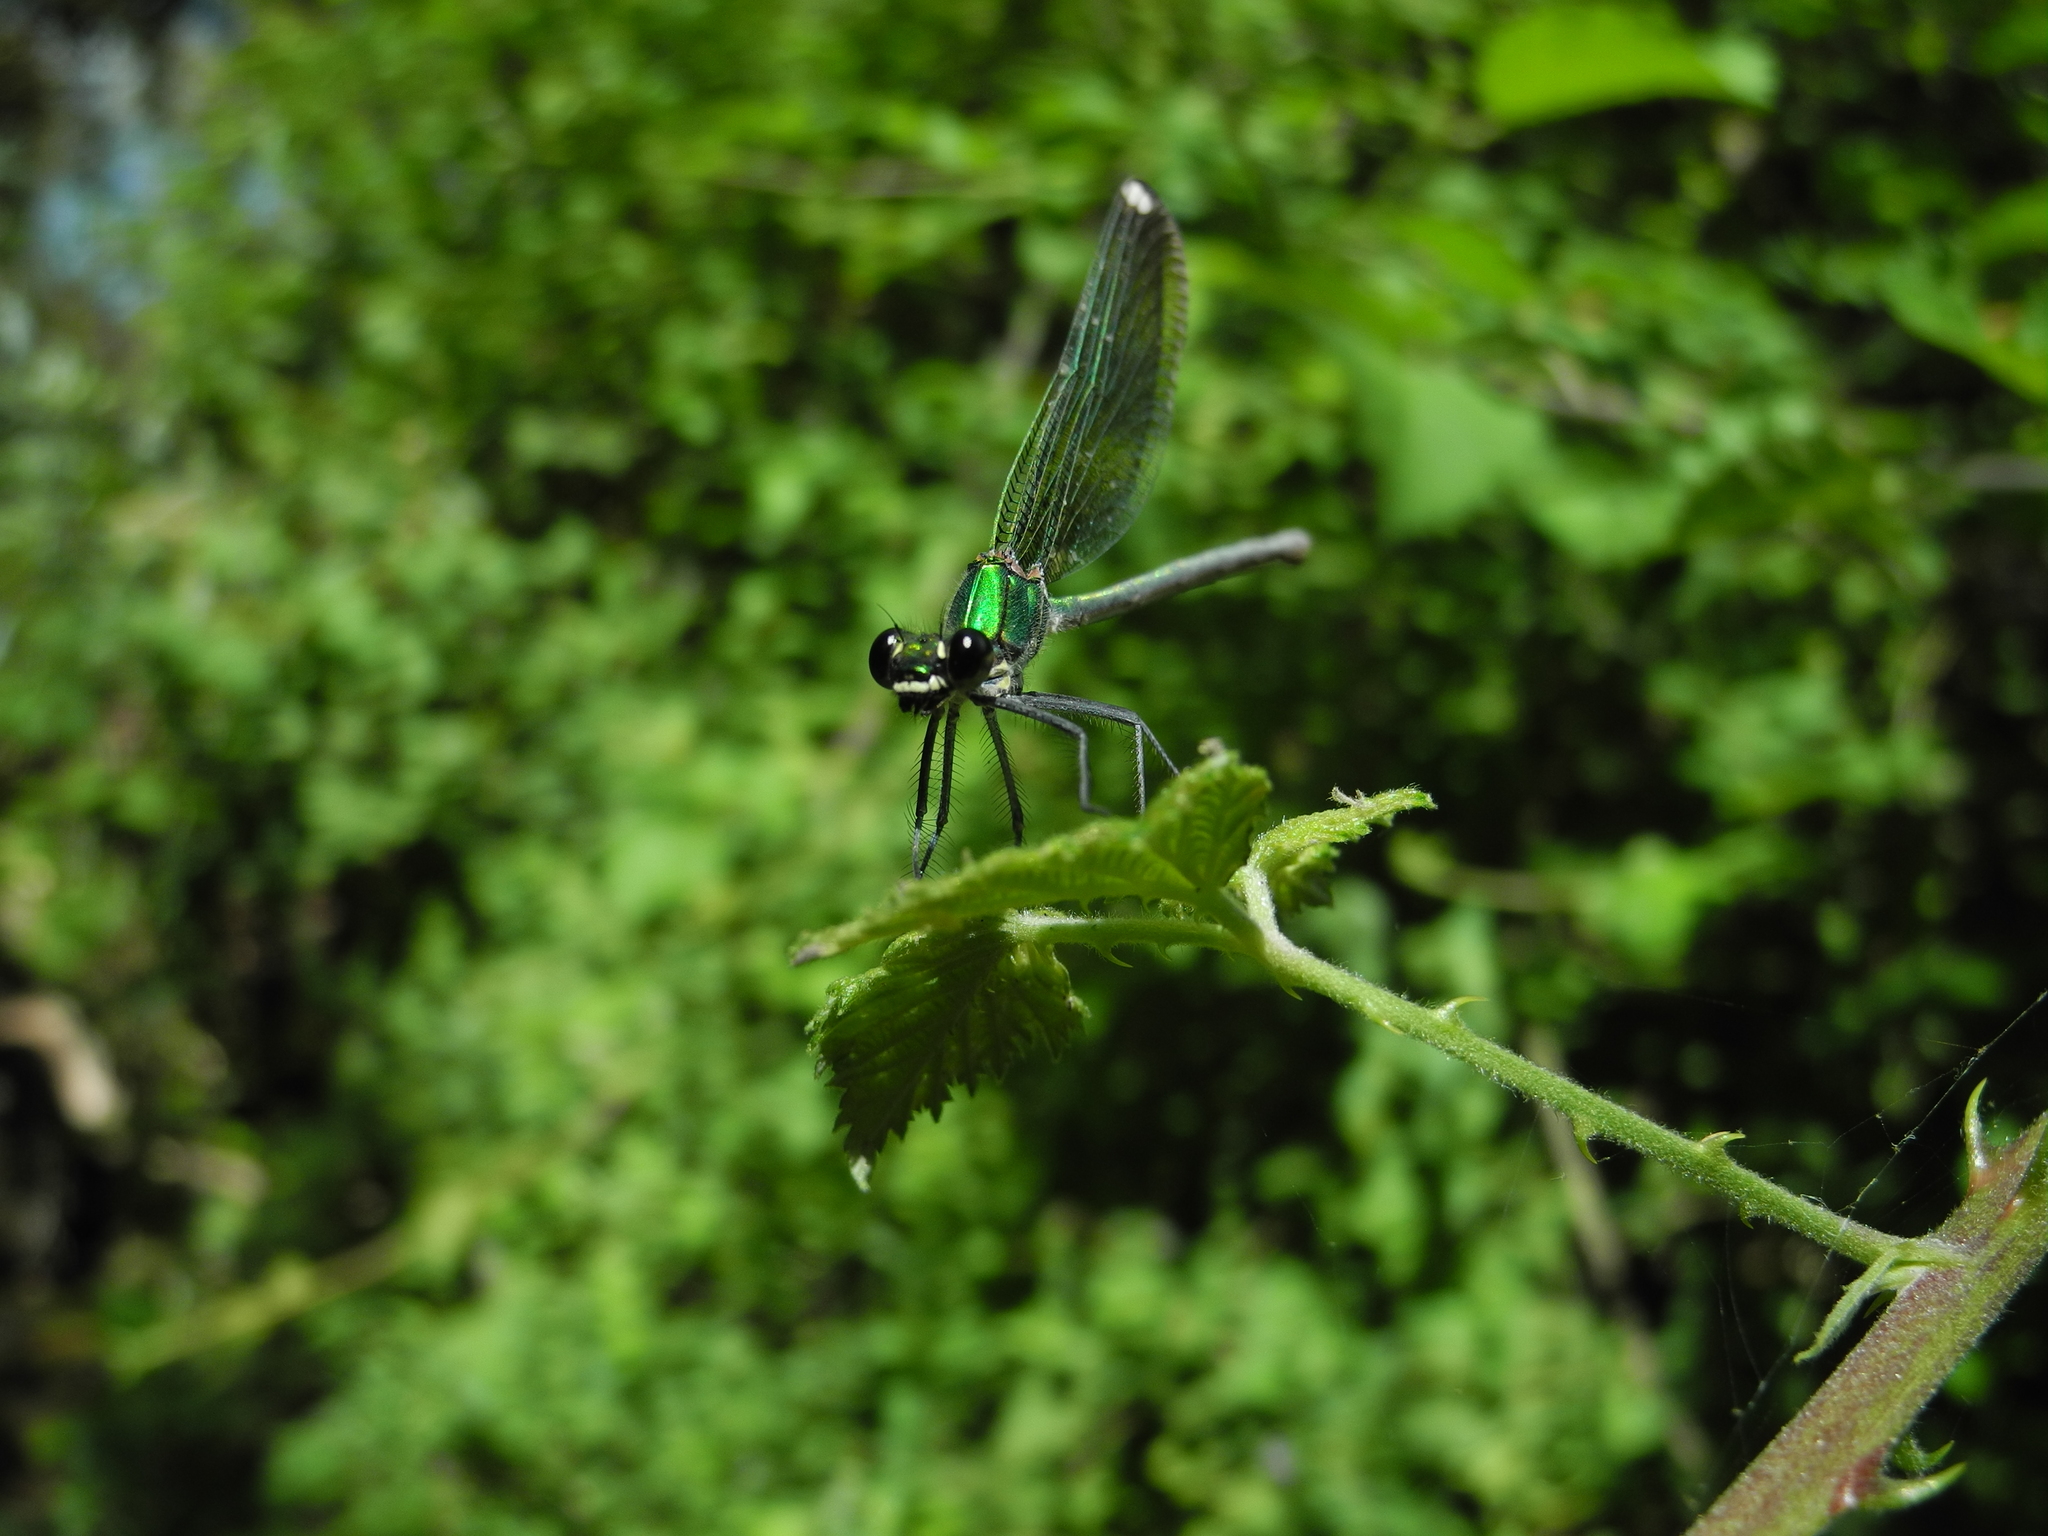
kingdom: Animalia
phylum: Arthropoda
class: Insecta
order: Odonata
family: Calopterygidae
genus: Calopteryx
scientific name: Calopteryx syriaca
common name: Syrian demoiselle
